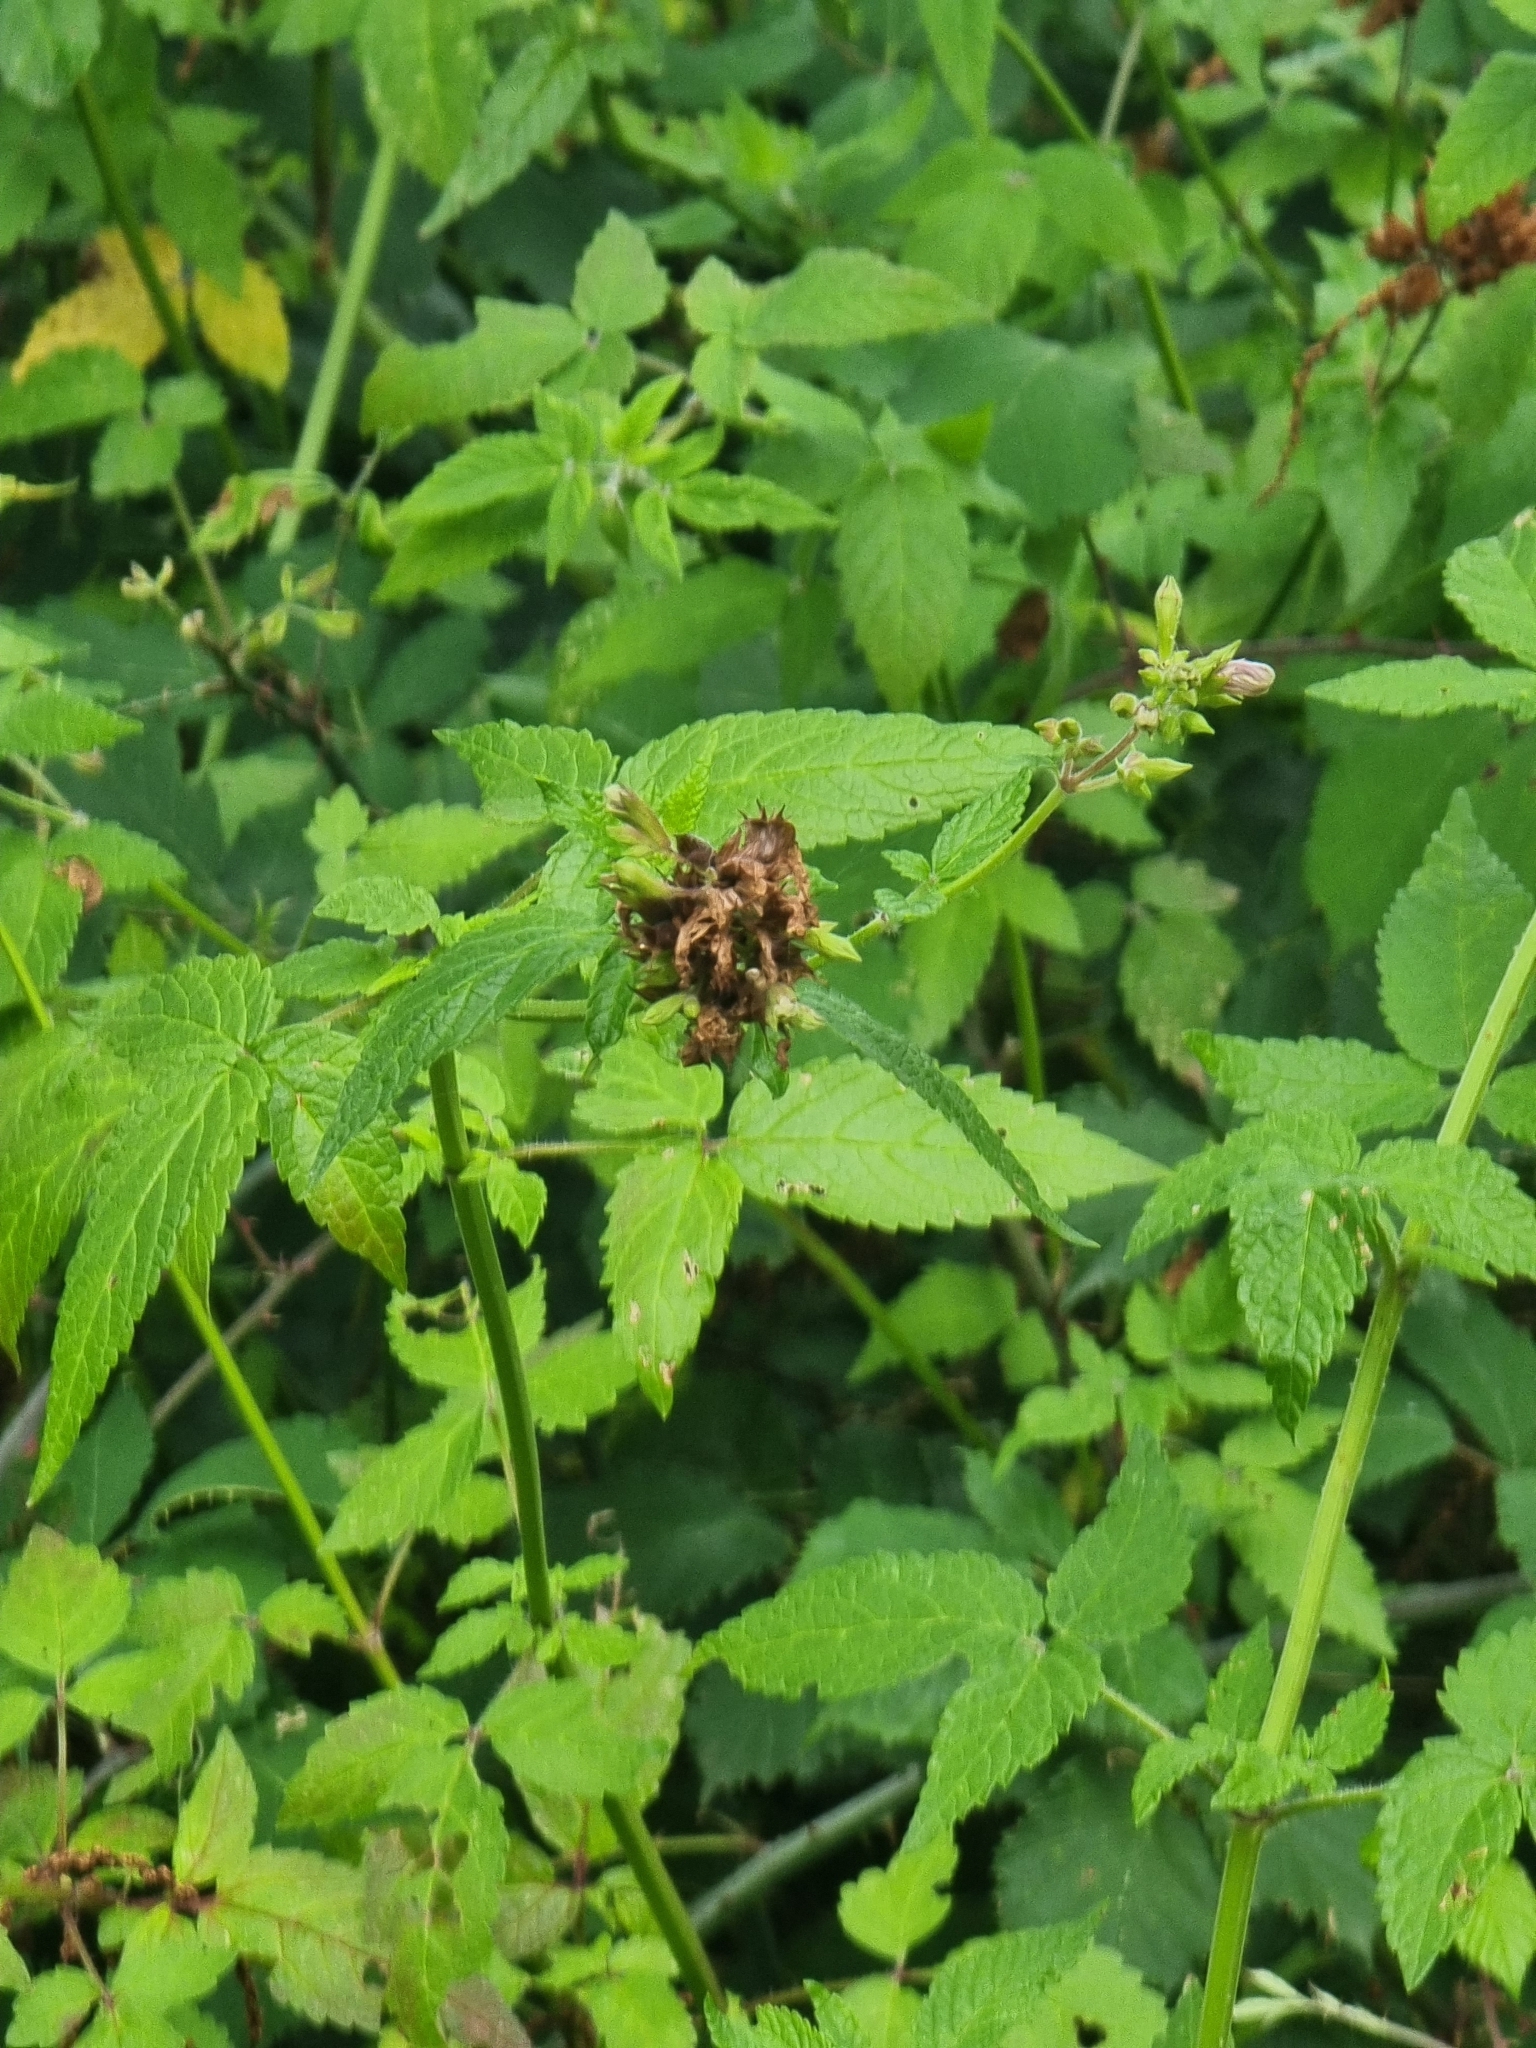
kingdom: Plantae
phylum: Tracheophyta
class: Magnoliopsida
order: Lamiales
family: Lamiaceae
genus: Cedronella
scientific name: Cedronella canariensis
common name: Canary islands balm
